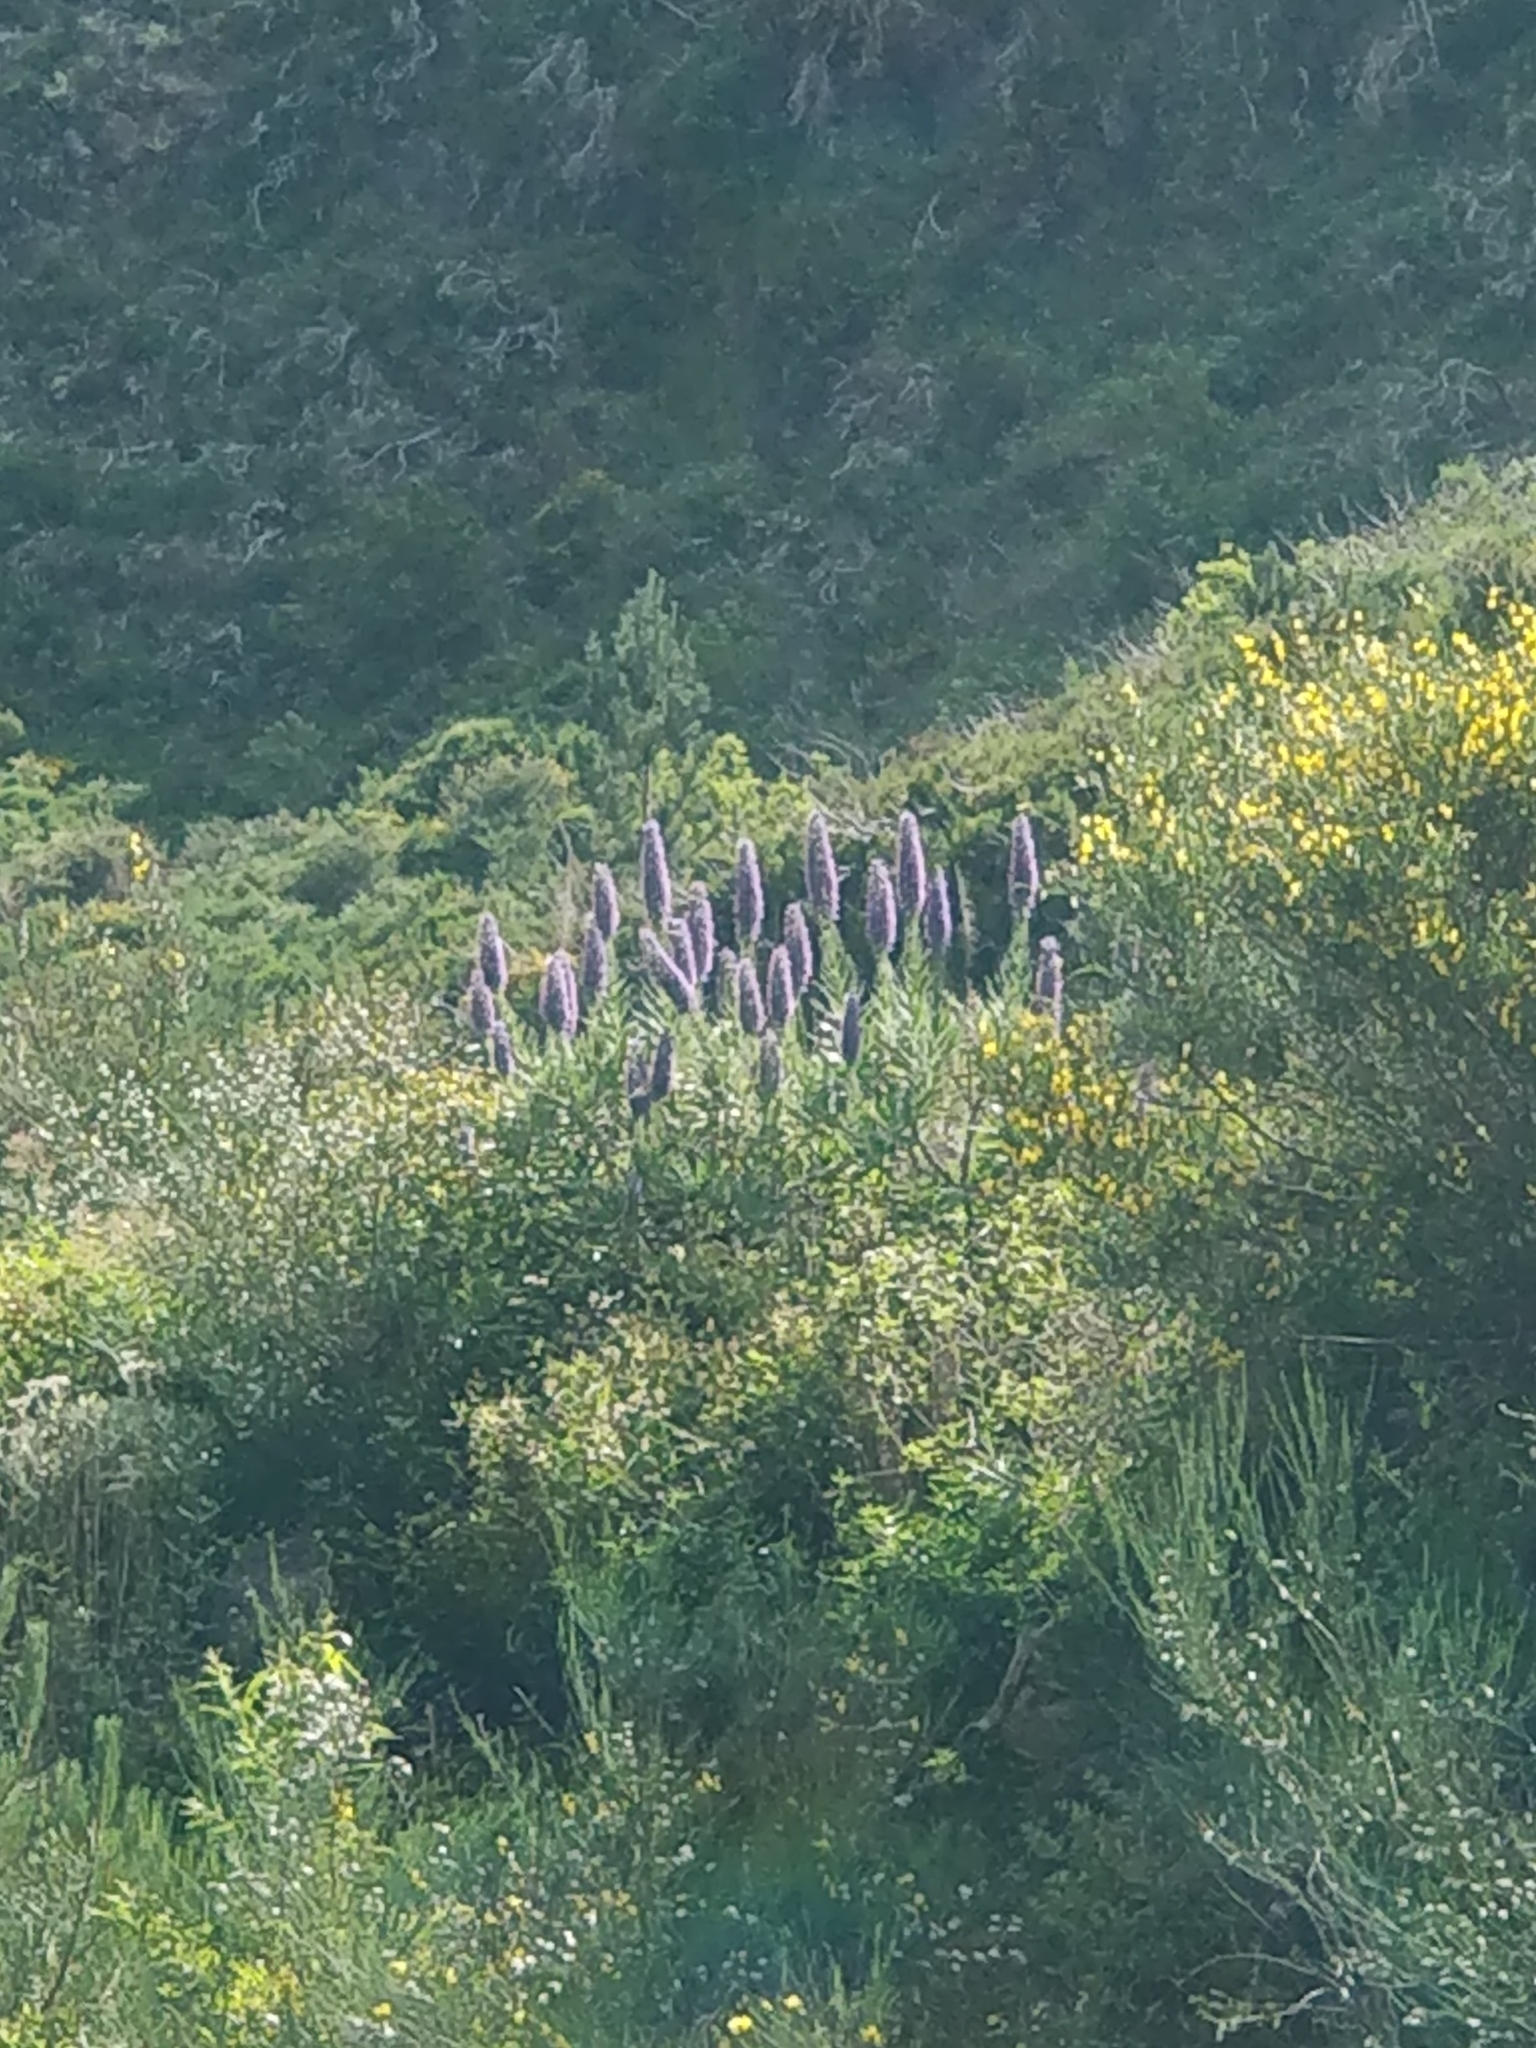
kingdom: Plantae
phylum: Tracheophyta
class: Magnoliopsida
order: Boraginales
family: Boraginaceae
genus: Echium
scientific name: Echium candicans
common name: Pride of madeira
